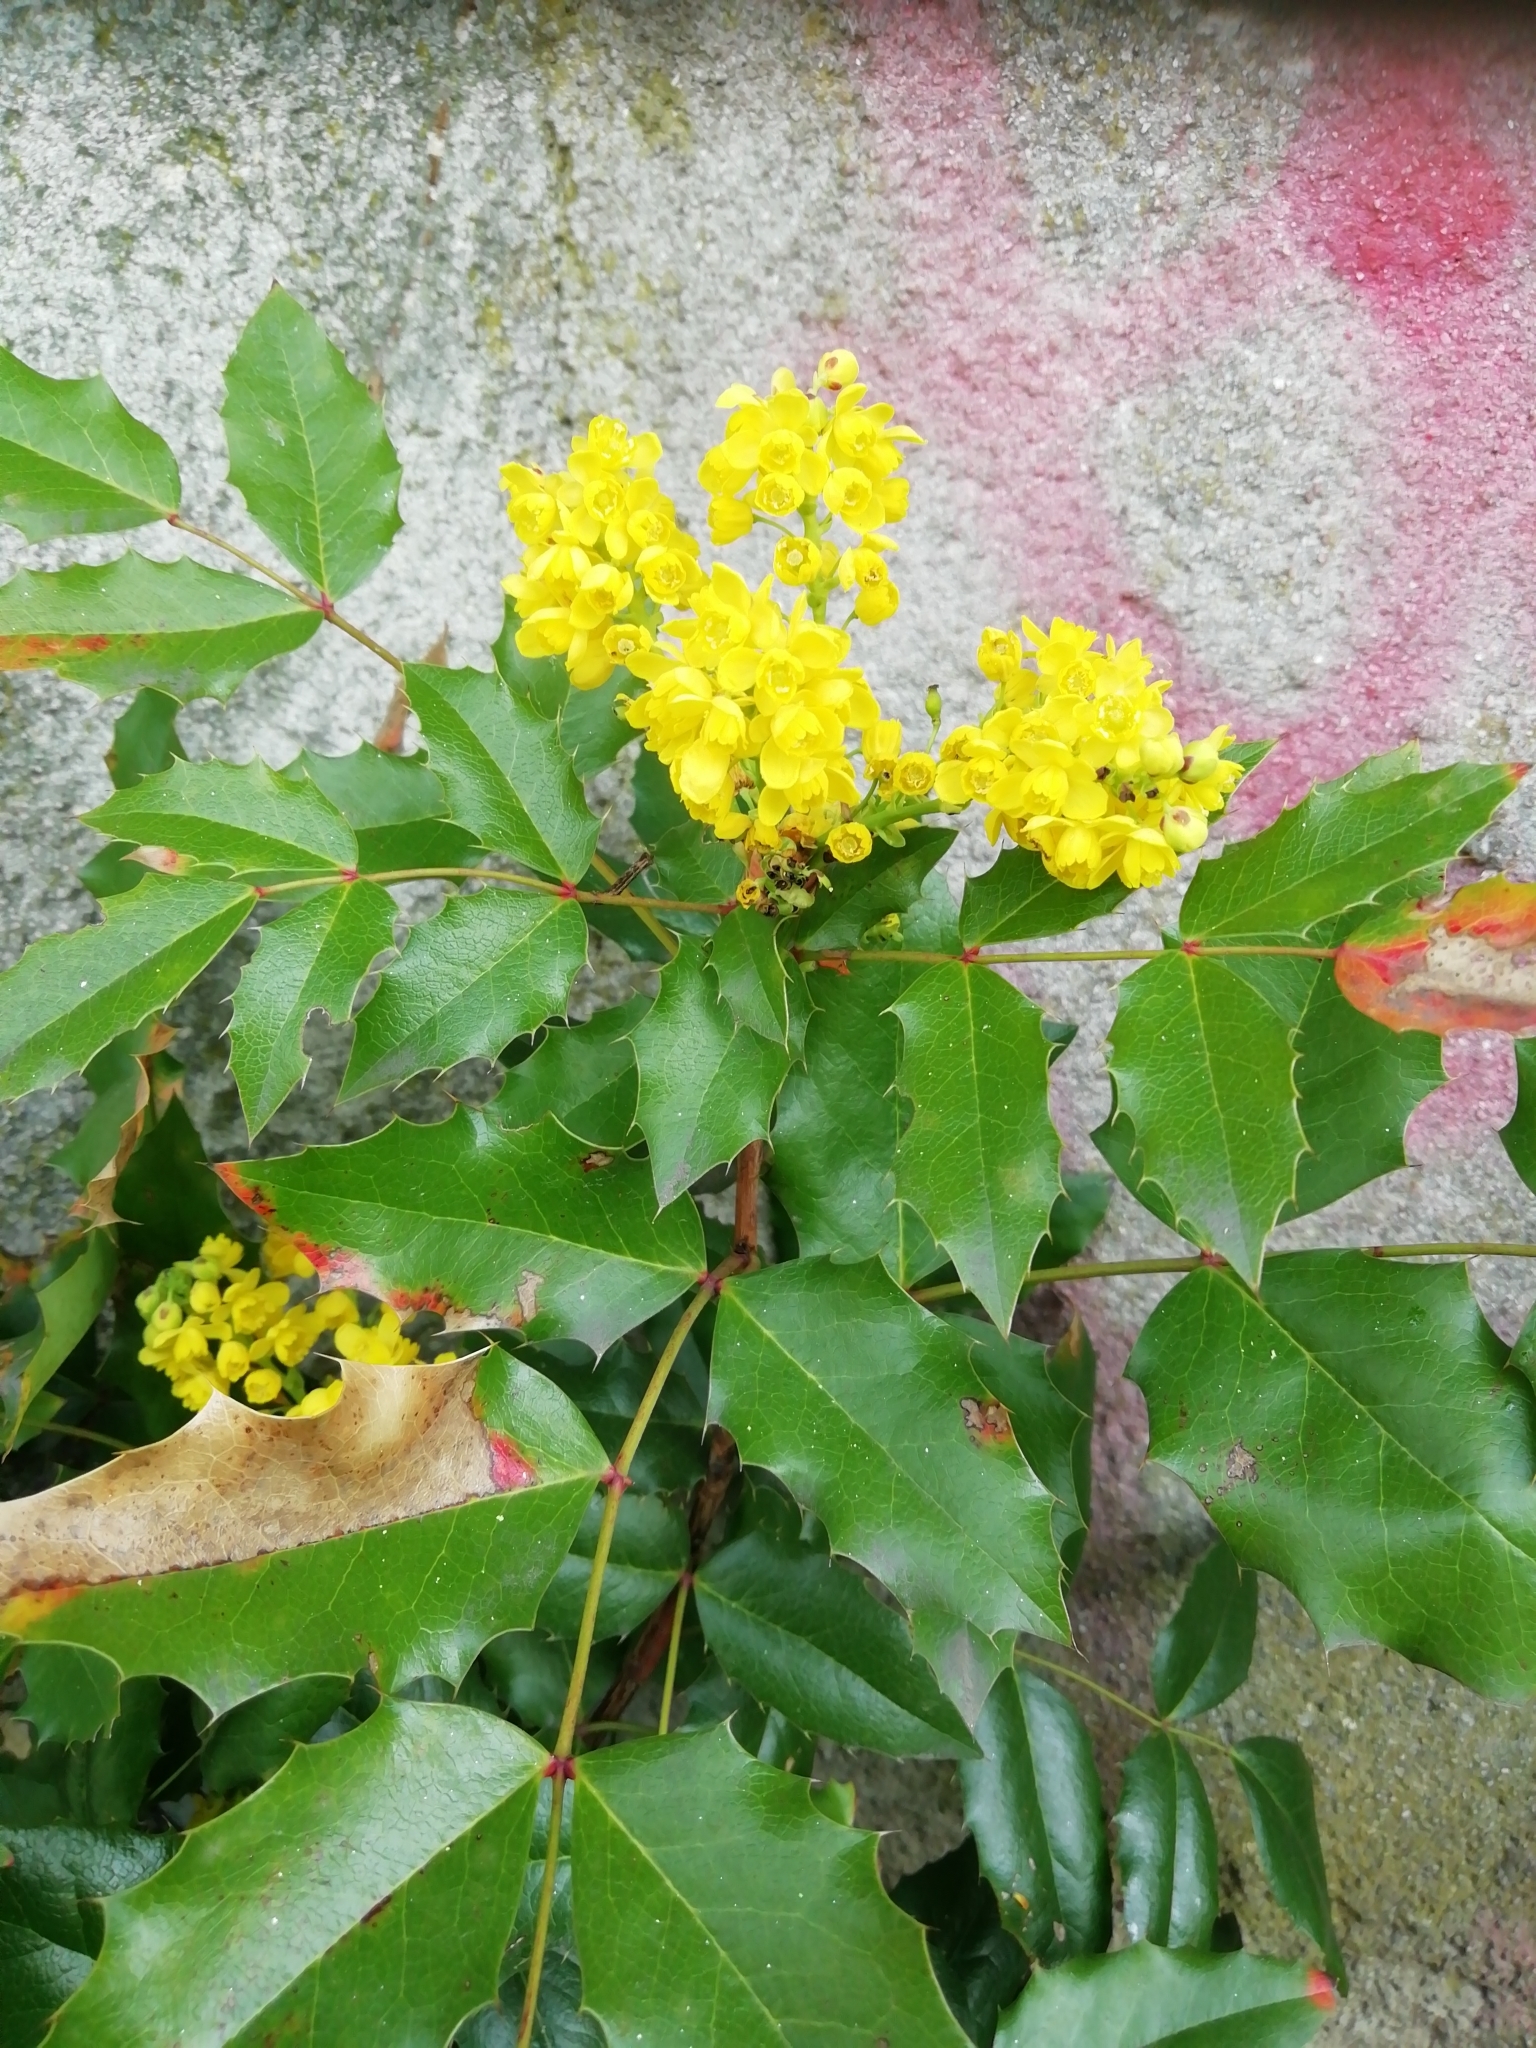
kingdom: Plantae
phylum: Tracheophyta
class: Magnoliopsida
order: Ranunculales
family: Berberidaceae
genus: Mahonia
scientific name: Mahonia aquifolium
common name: Oregon-grape
